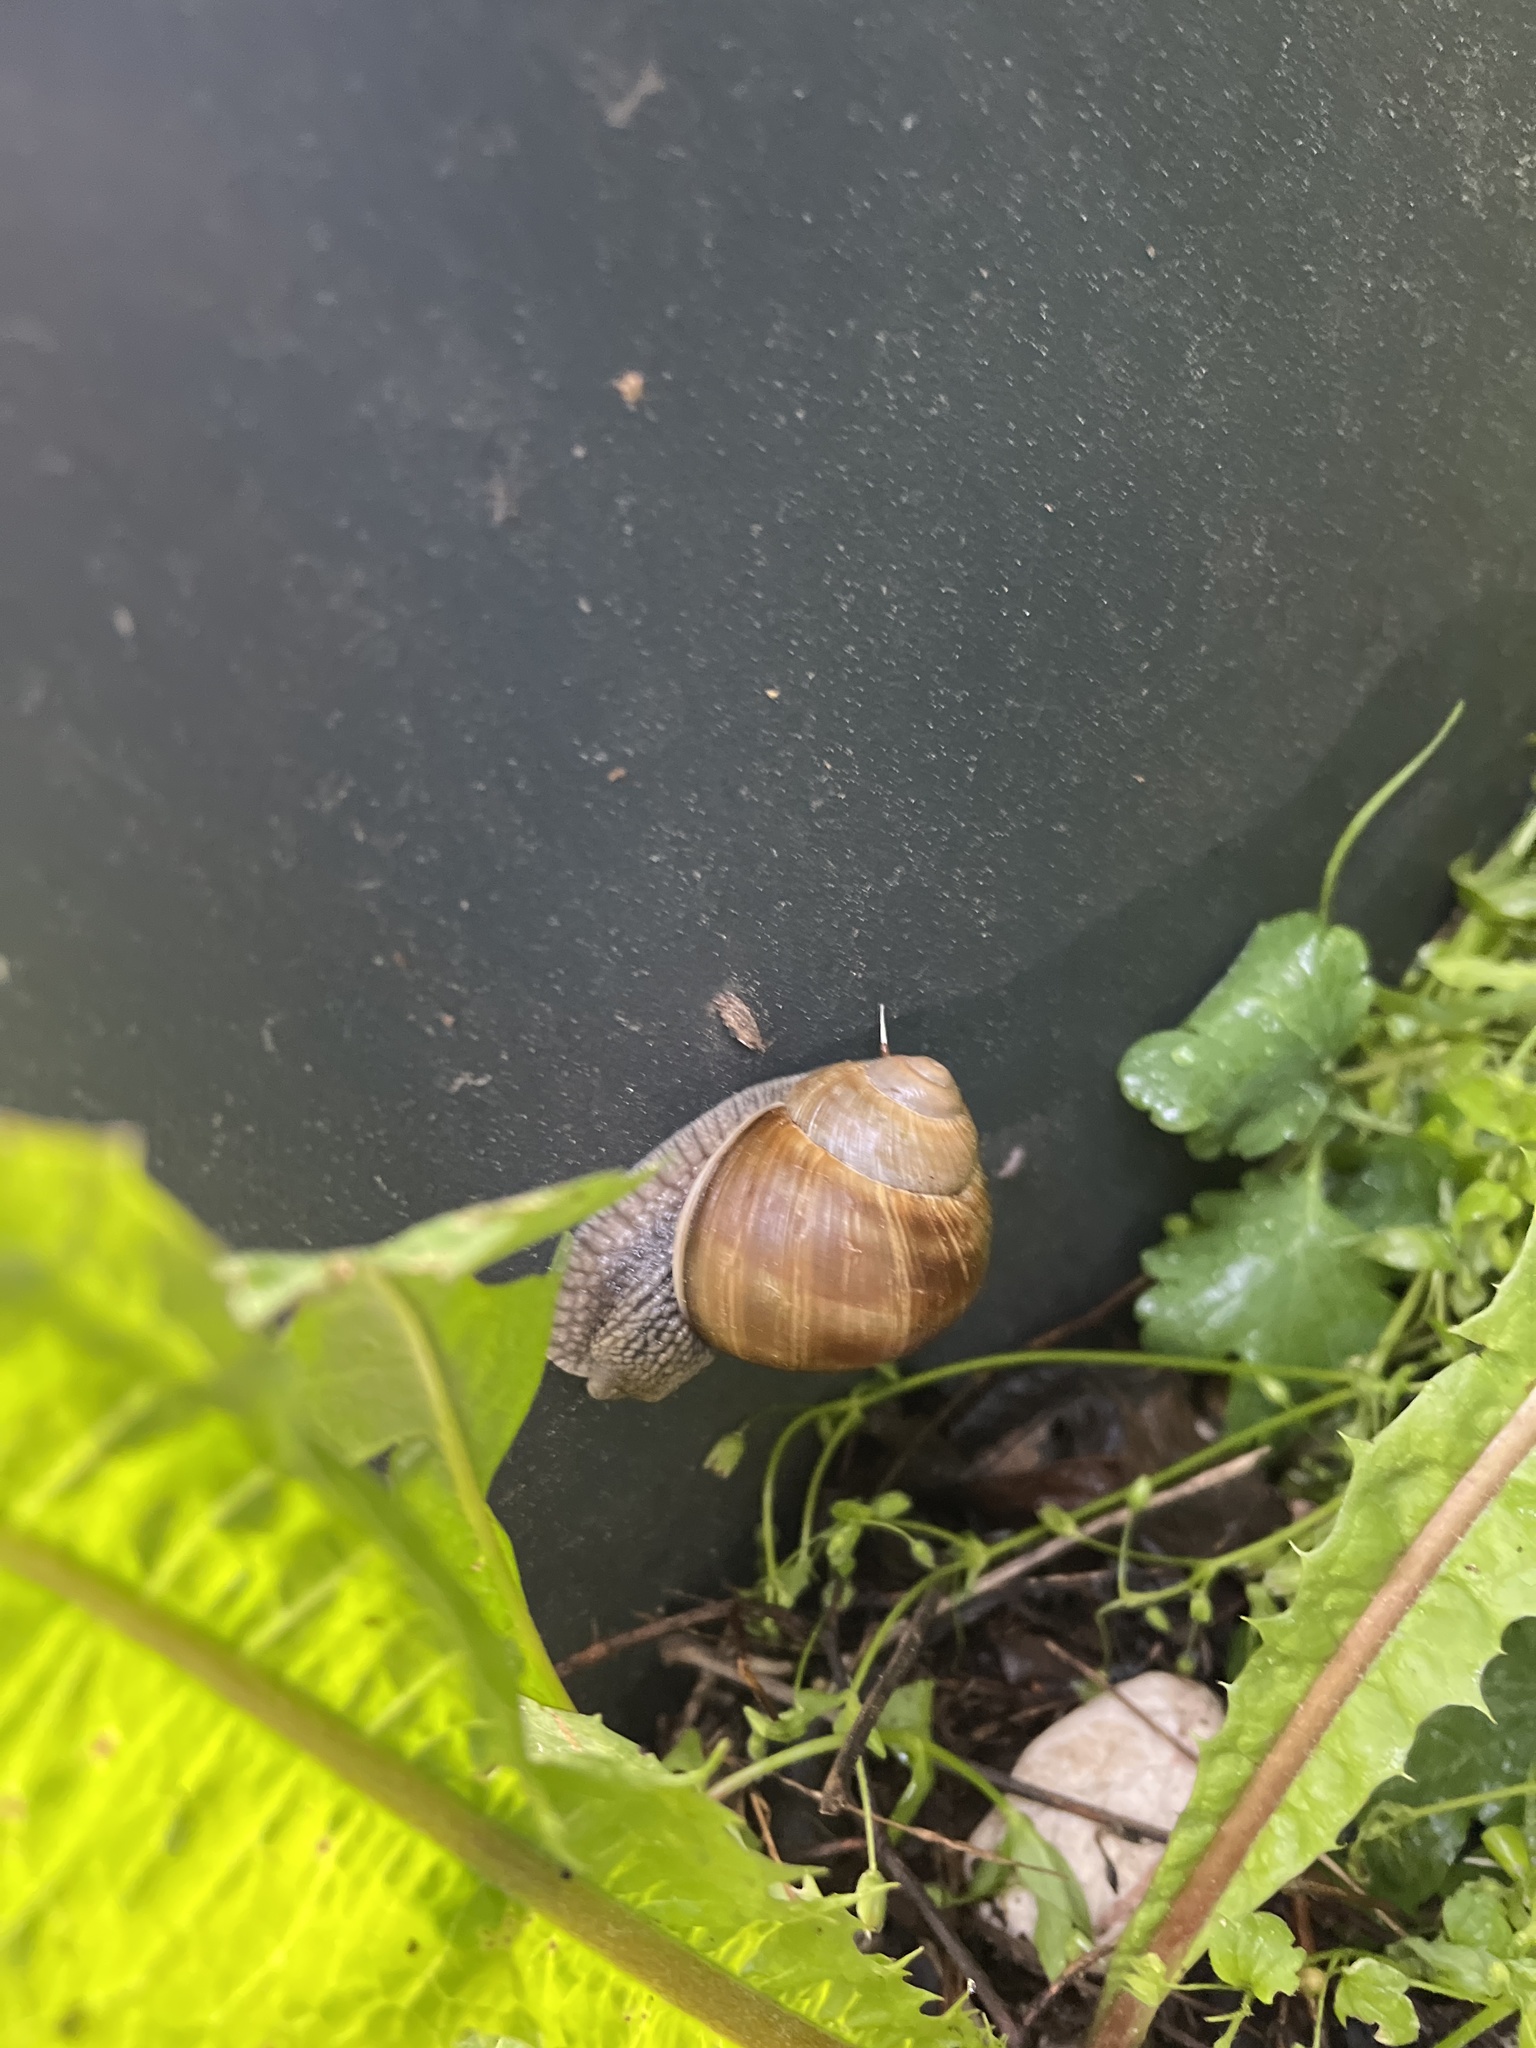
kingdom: Animalia
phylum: Mollusca
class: Gastropoda
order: Stylommatophora
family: Helicidae
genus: Helix
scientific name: Helix pomatia
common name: Roman snail
